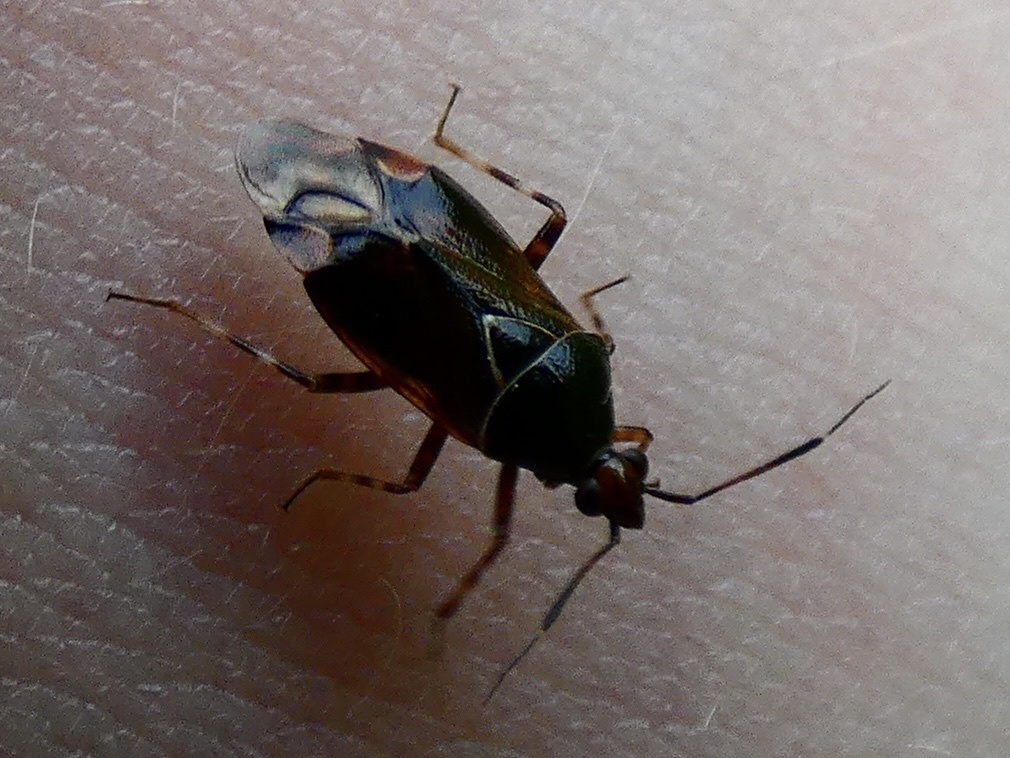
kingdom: Animalia
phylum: Arthropoda
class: Insecta
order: Hemiptera
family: Miridae
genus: Deraeocoris
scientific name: Deraeocoris flavilinea
